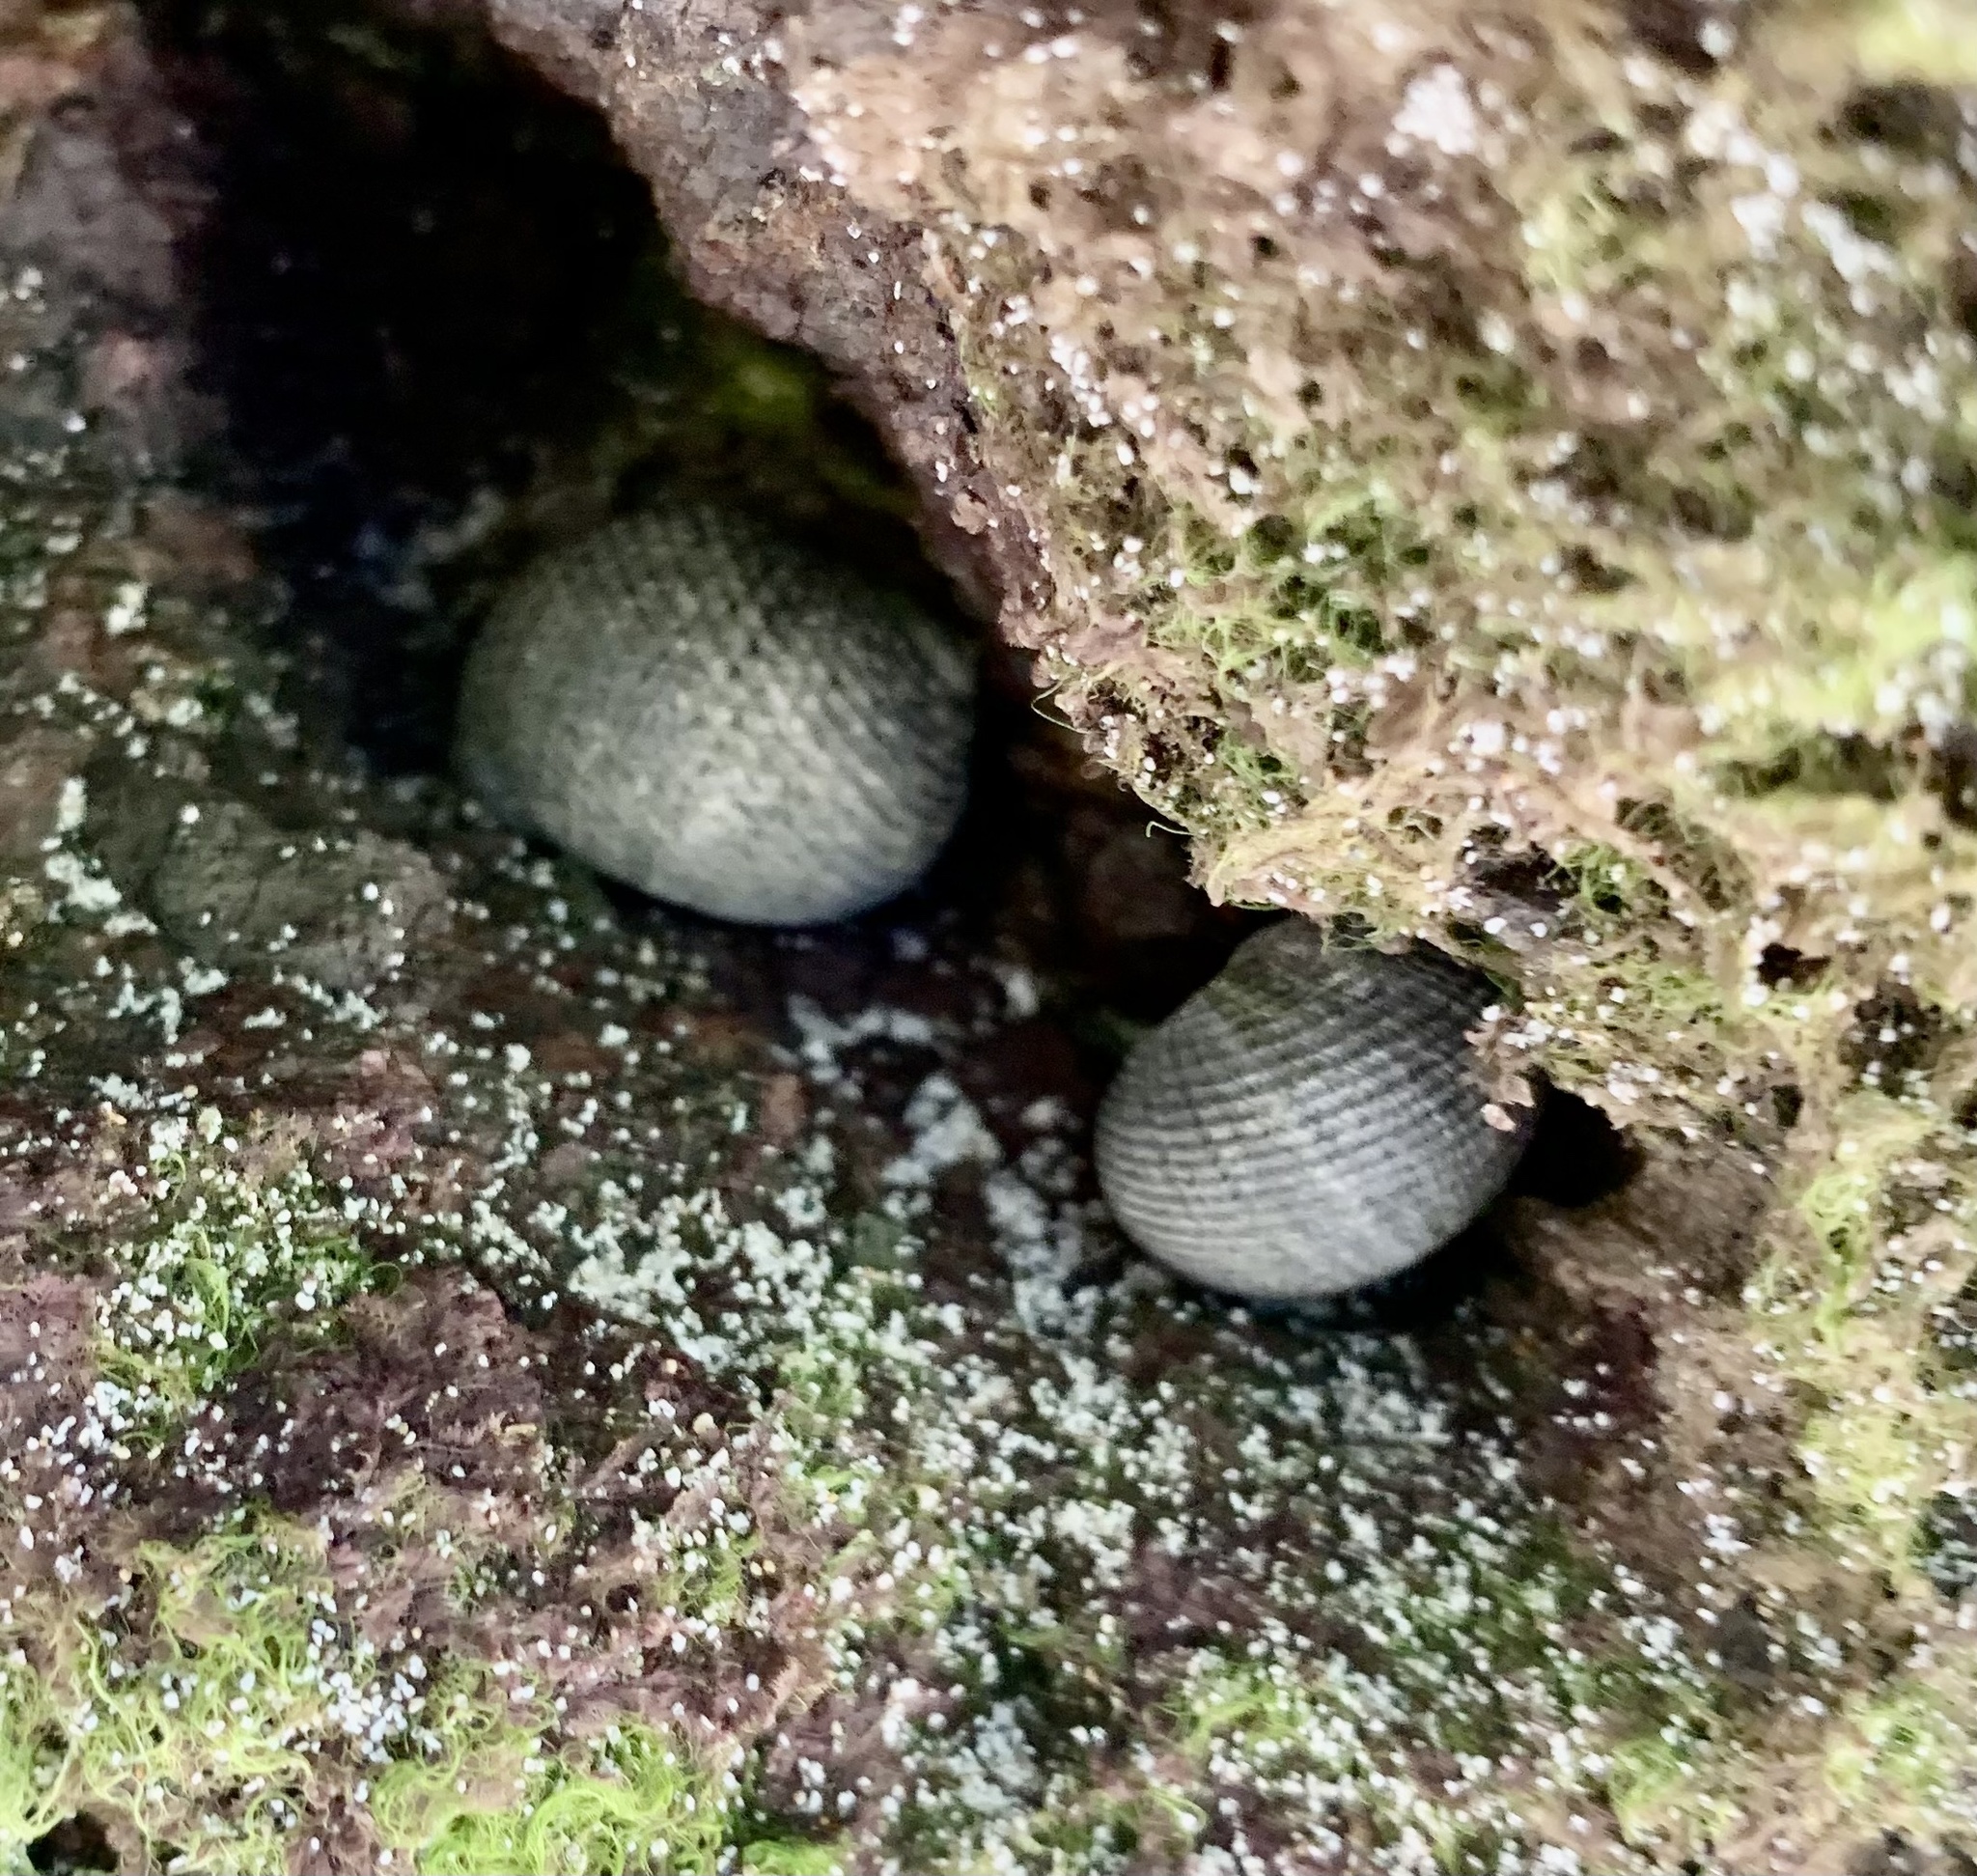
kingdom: Animalia
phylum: Mollusca
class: Gastropoda
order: Cycloneritida
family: Neritidae
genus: Nerita
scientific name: Nerita scabricosta
